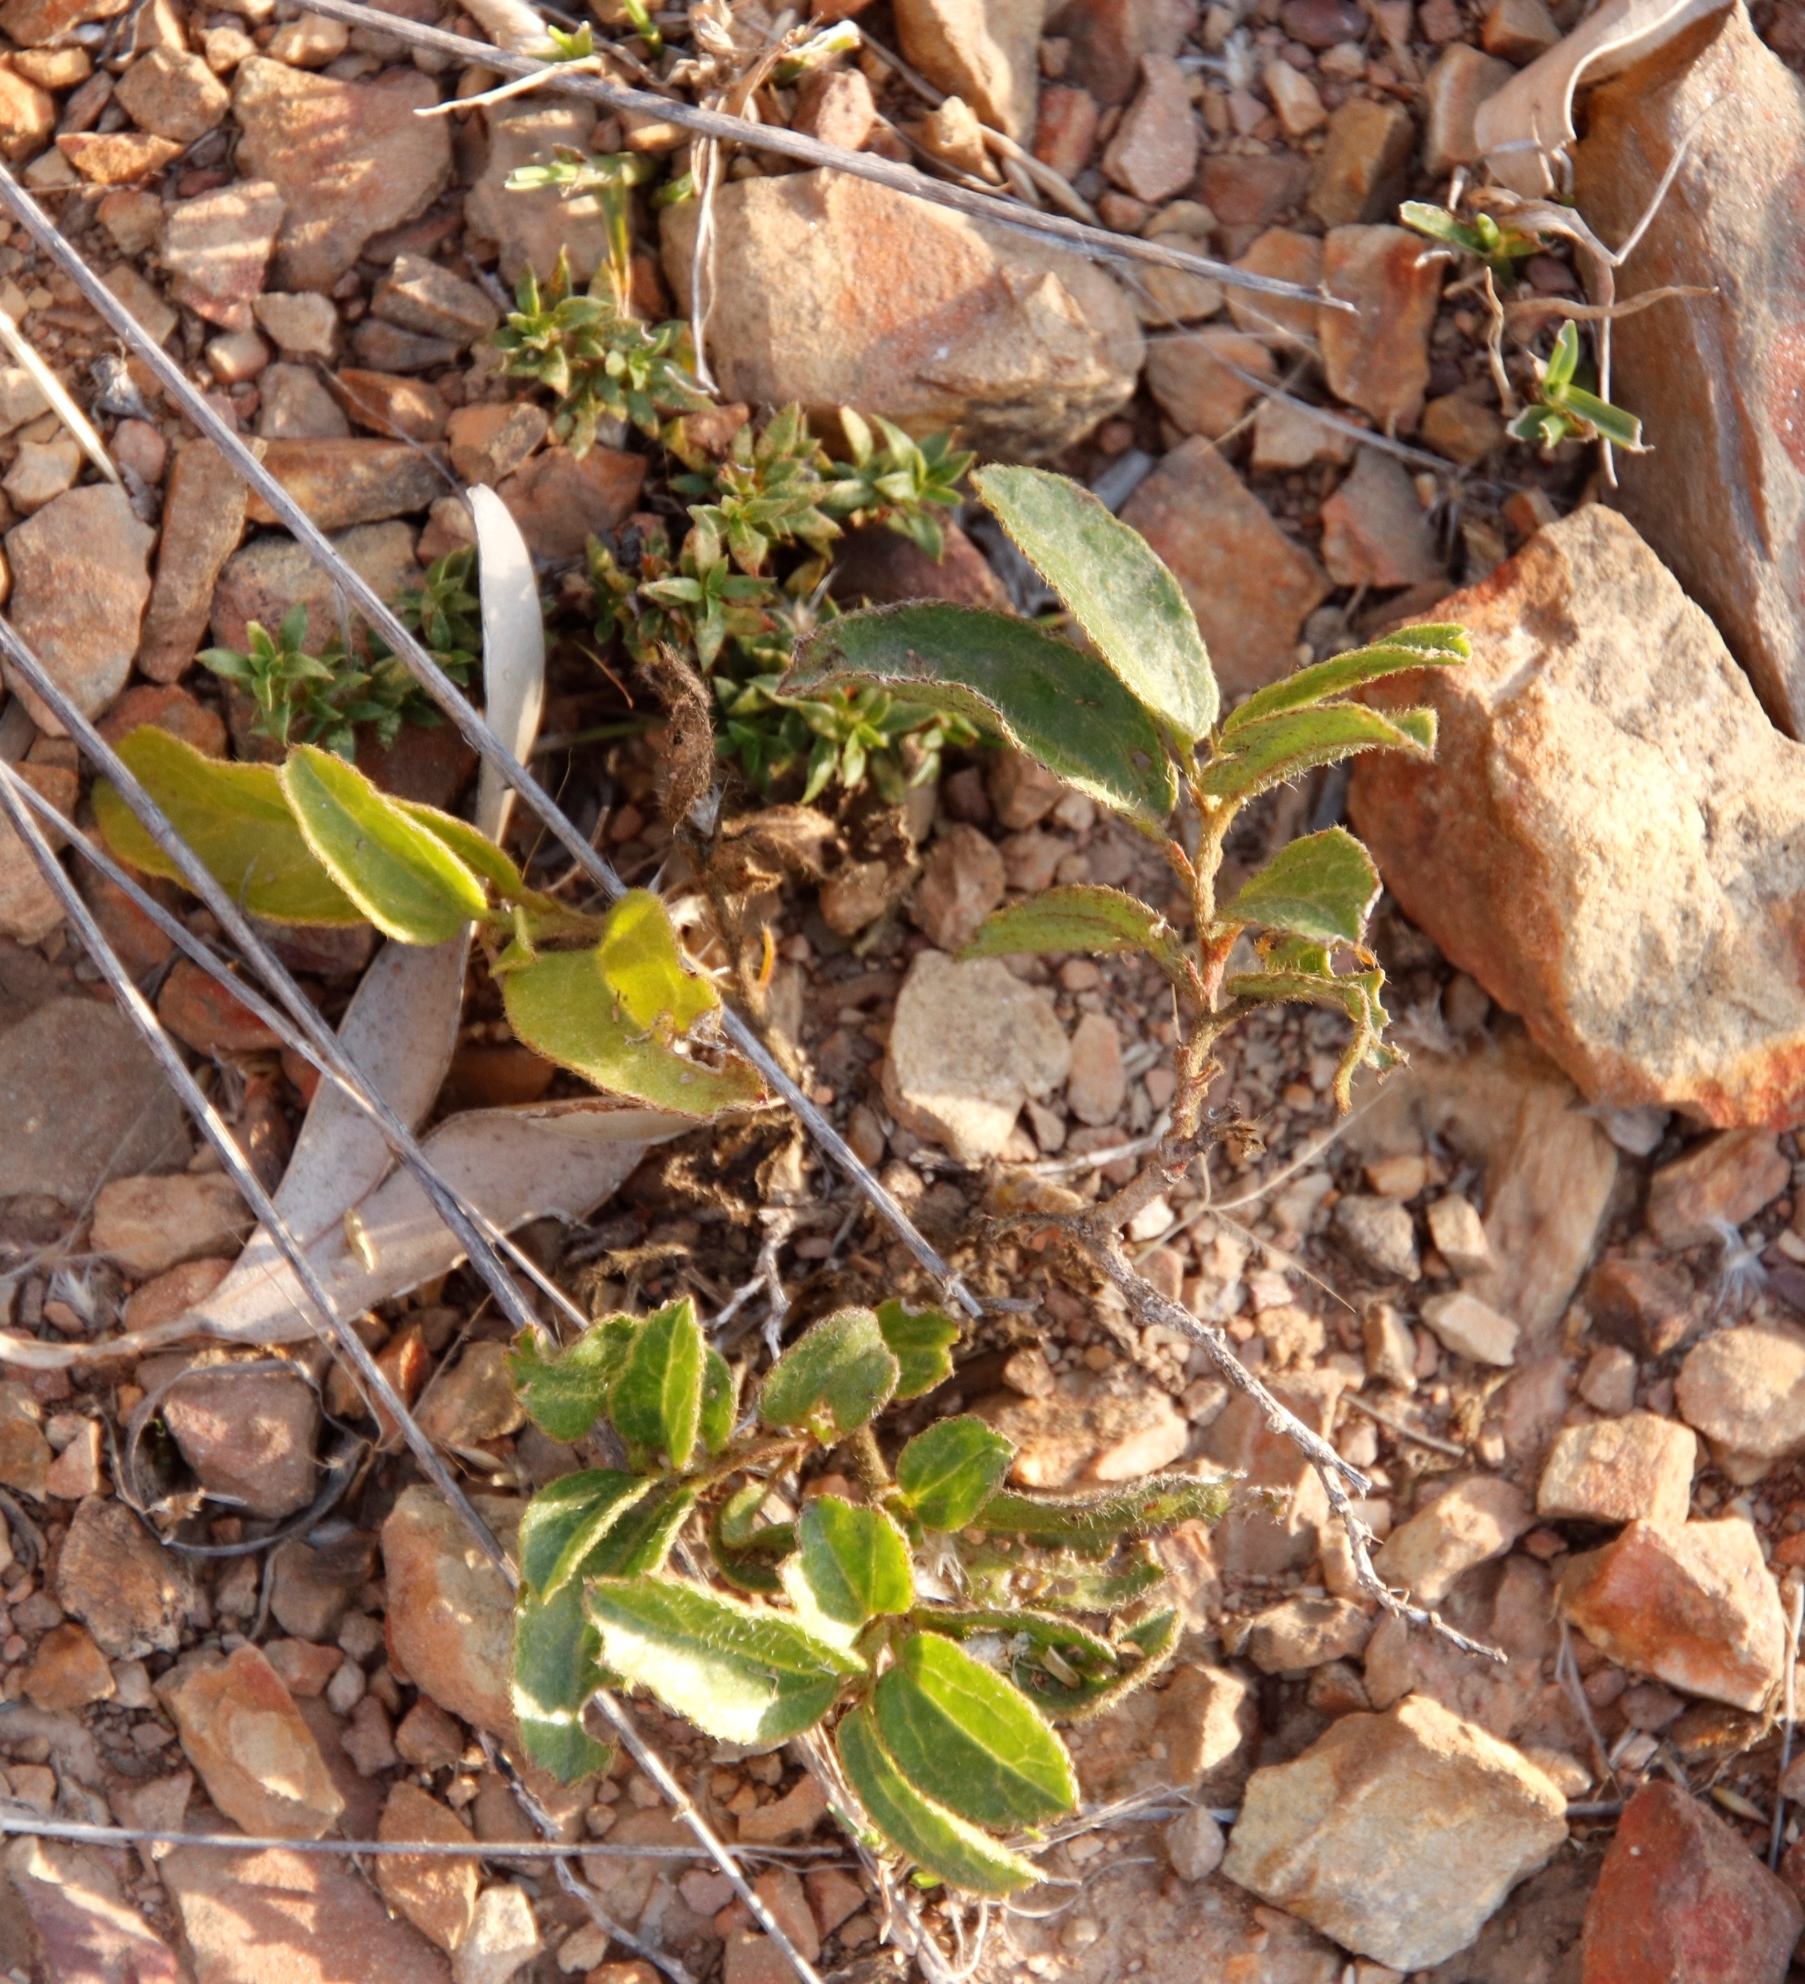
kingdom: Plantae
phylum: Tracheophyta
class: Magnoliopsida
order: Malvales
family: Malvaceae
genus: Hibiscus
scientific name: Hibiscus aethiopicus
